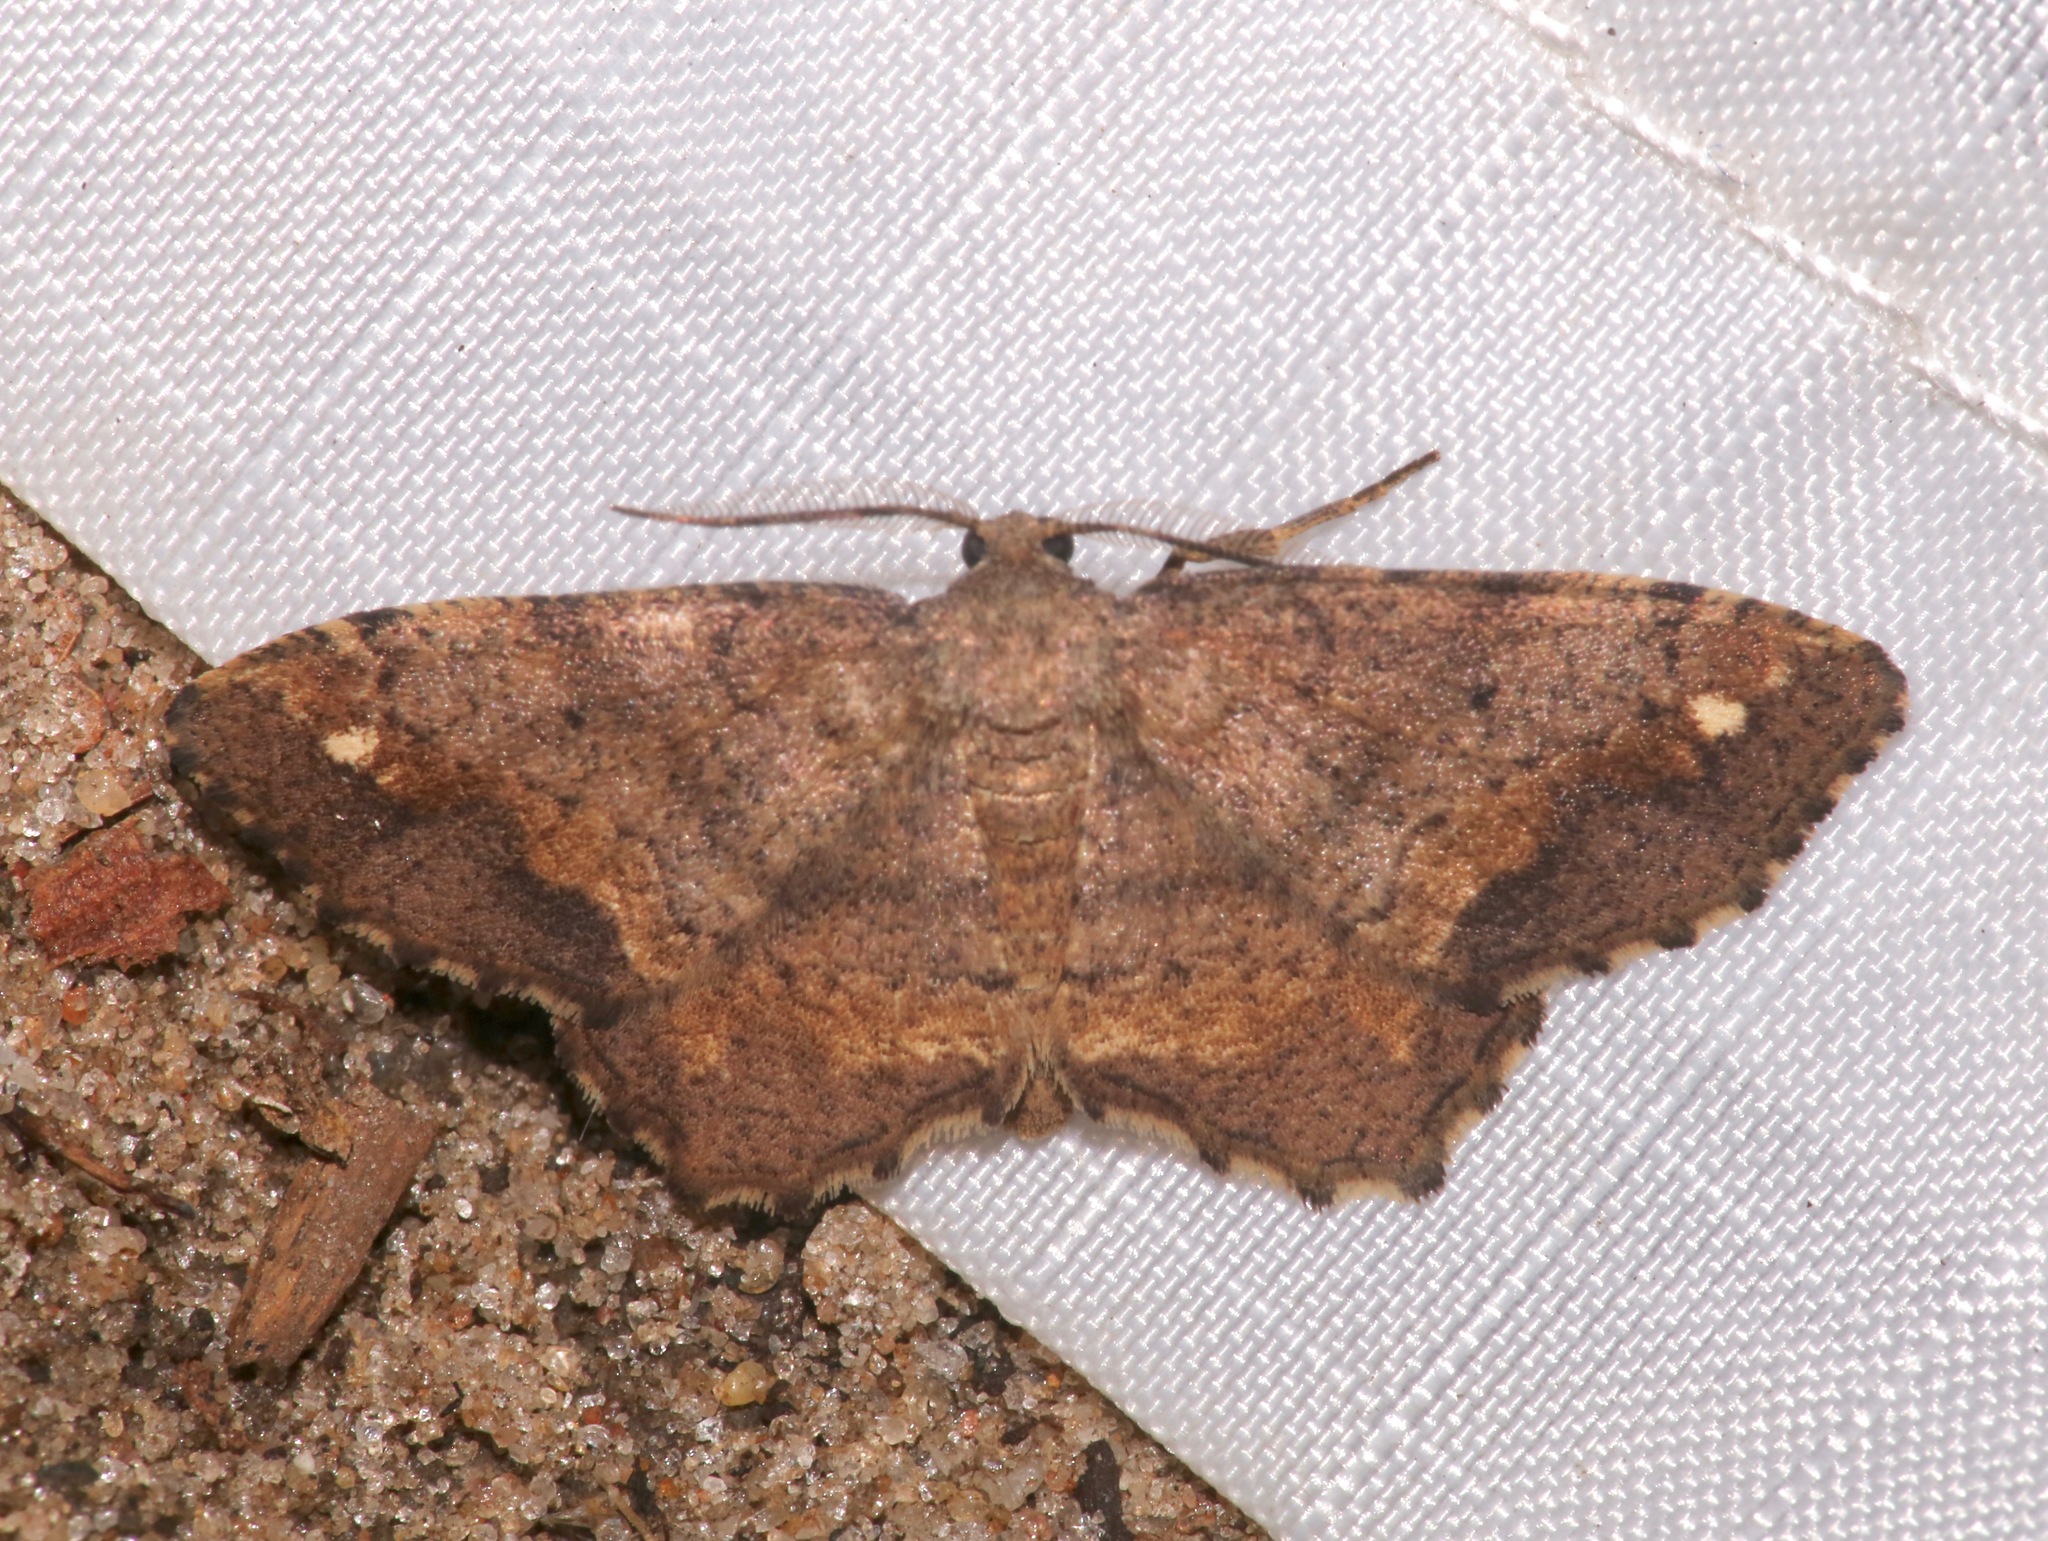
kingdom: Animalia
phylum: Arthropoda
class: Insecta
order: Lepidoptera
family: Geometridae
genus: Hypagyrtis
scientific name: Hypagyrtis
